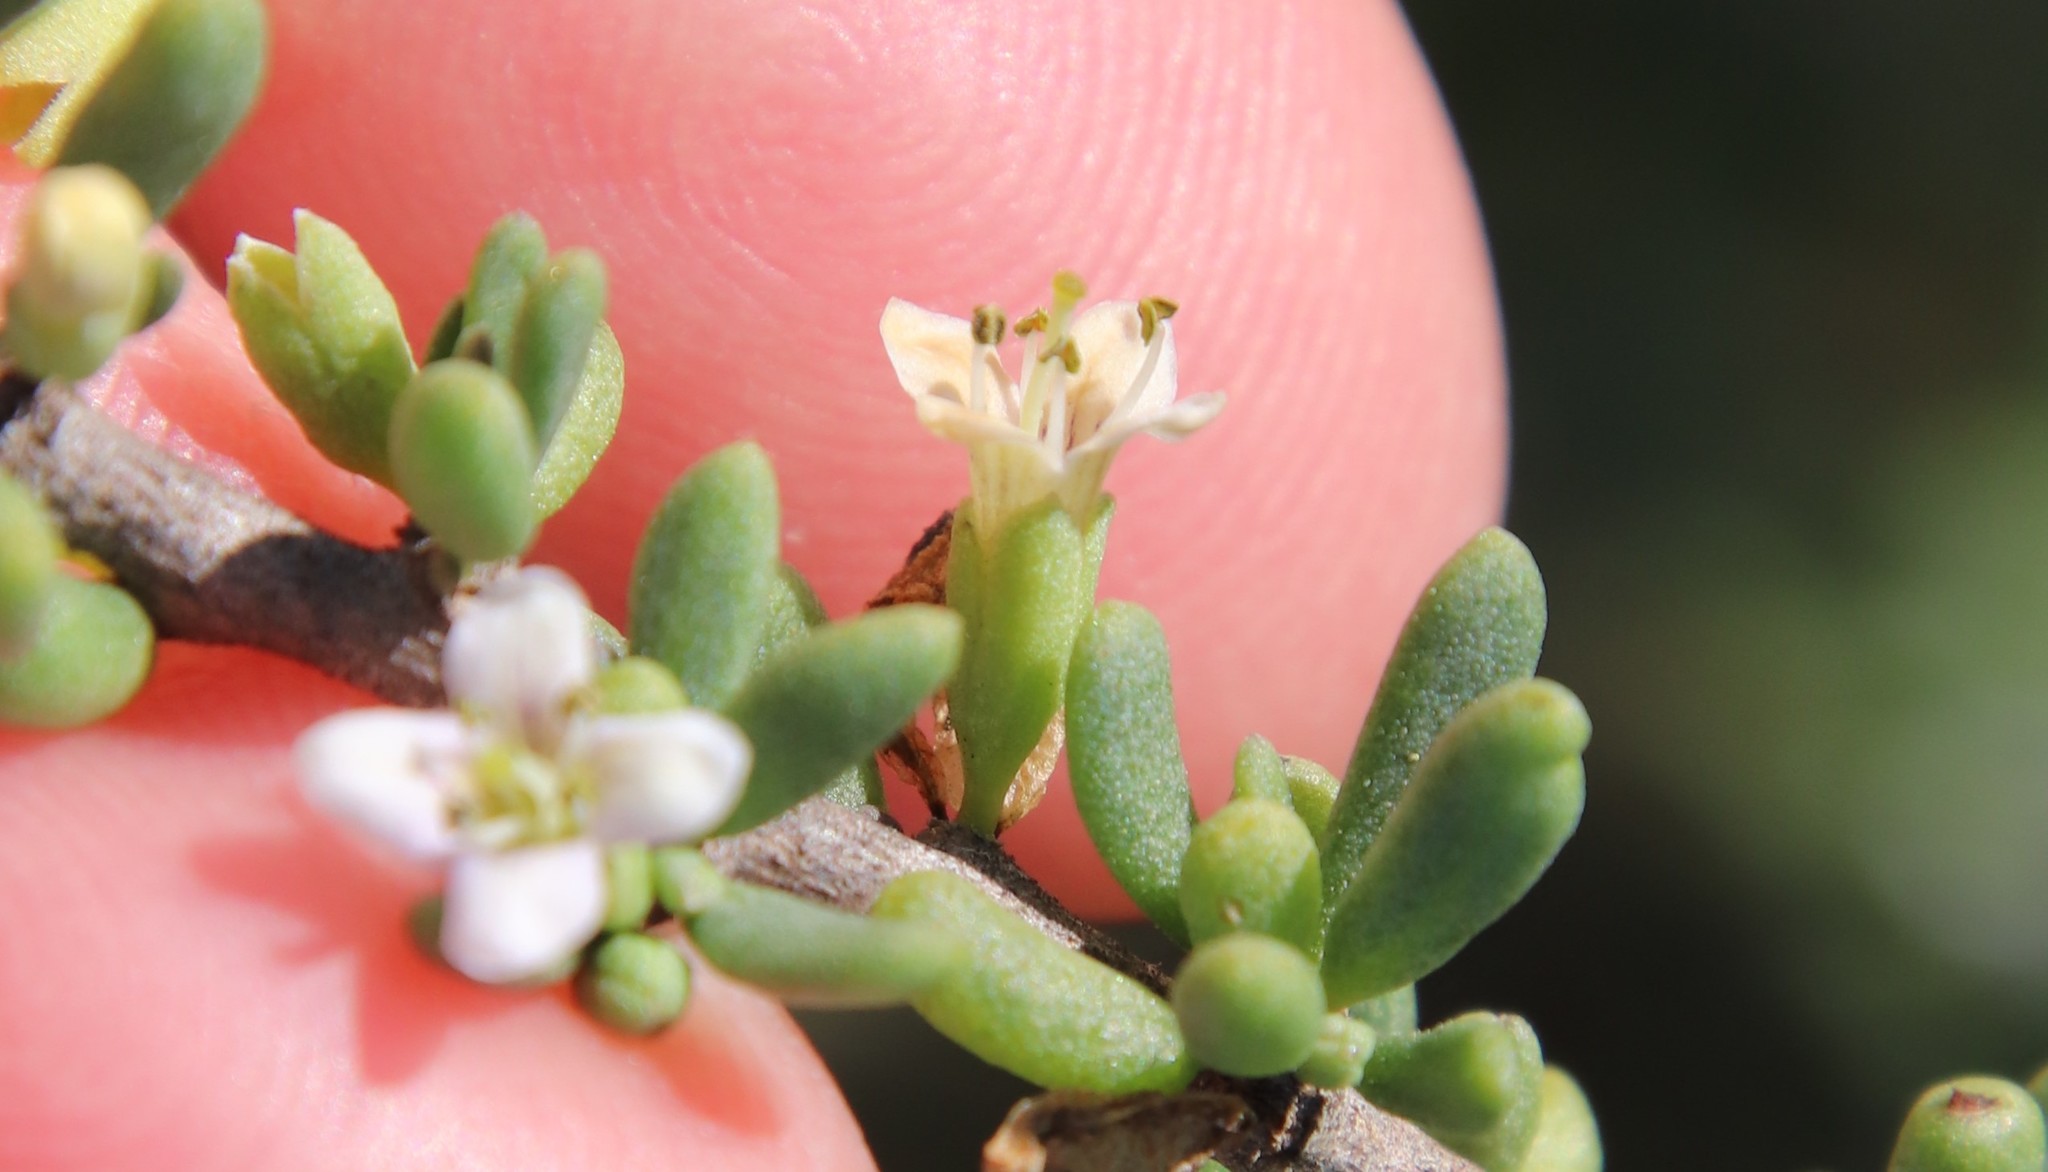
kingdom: Plantae
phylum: Tracheophyta
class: Magnoliopsida
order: Solanales
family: Solanaceae
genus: Lycium
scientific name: Lycium californicum
